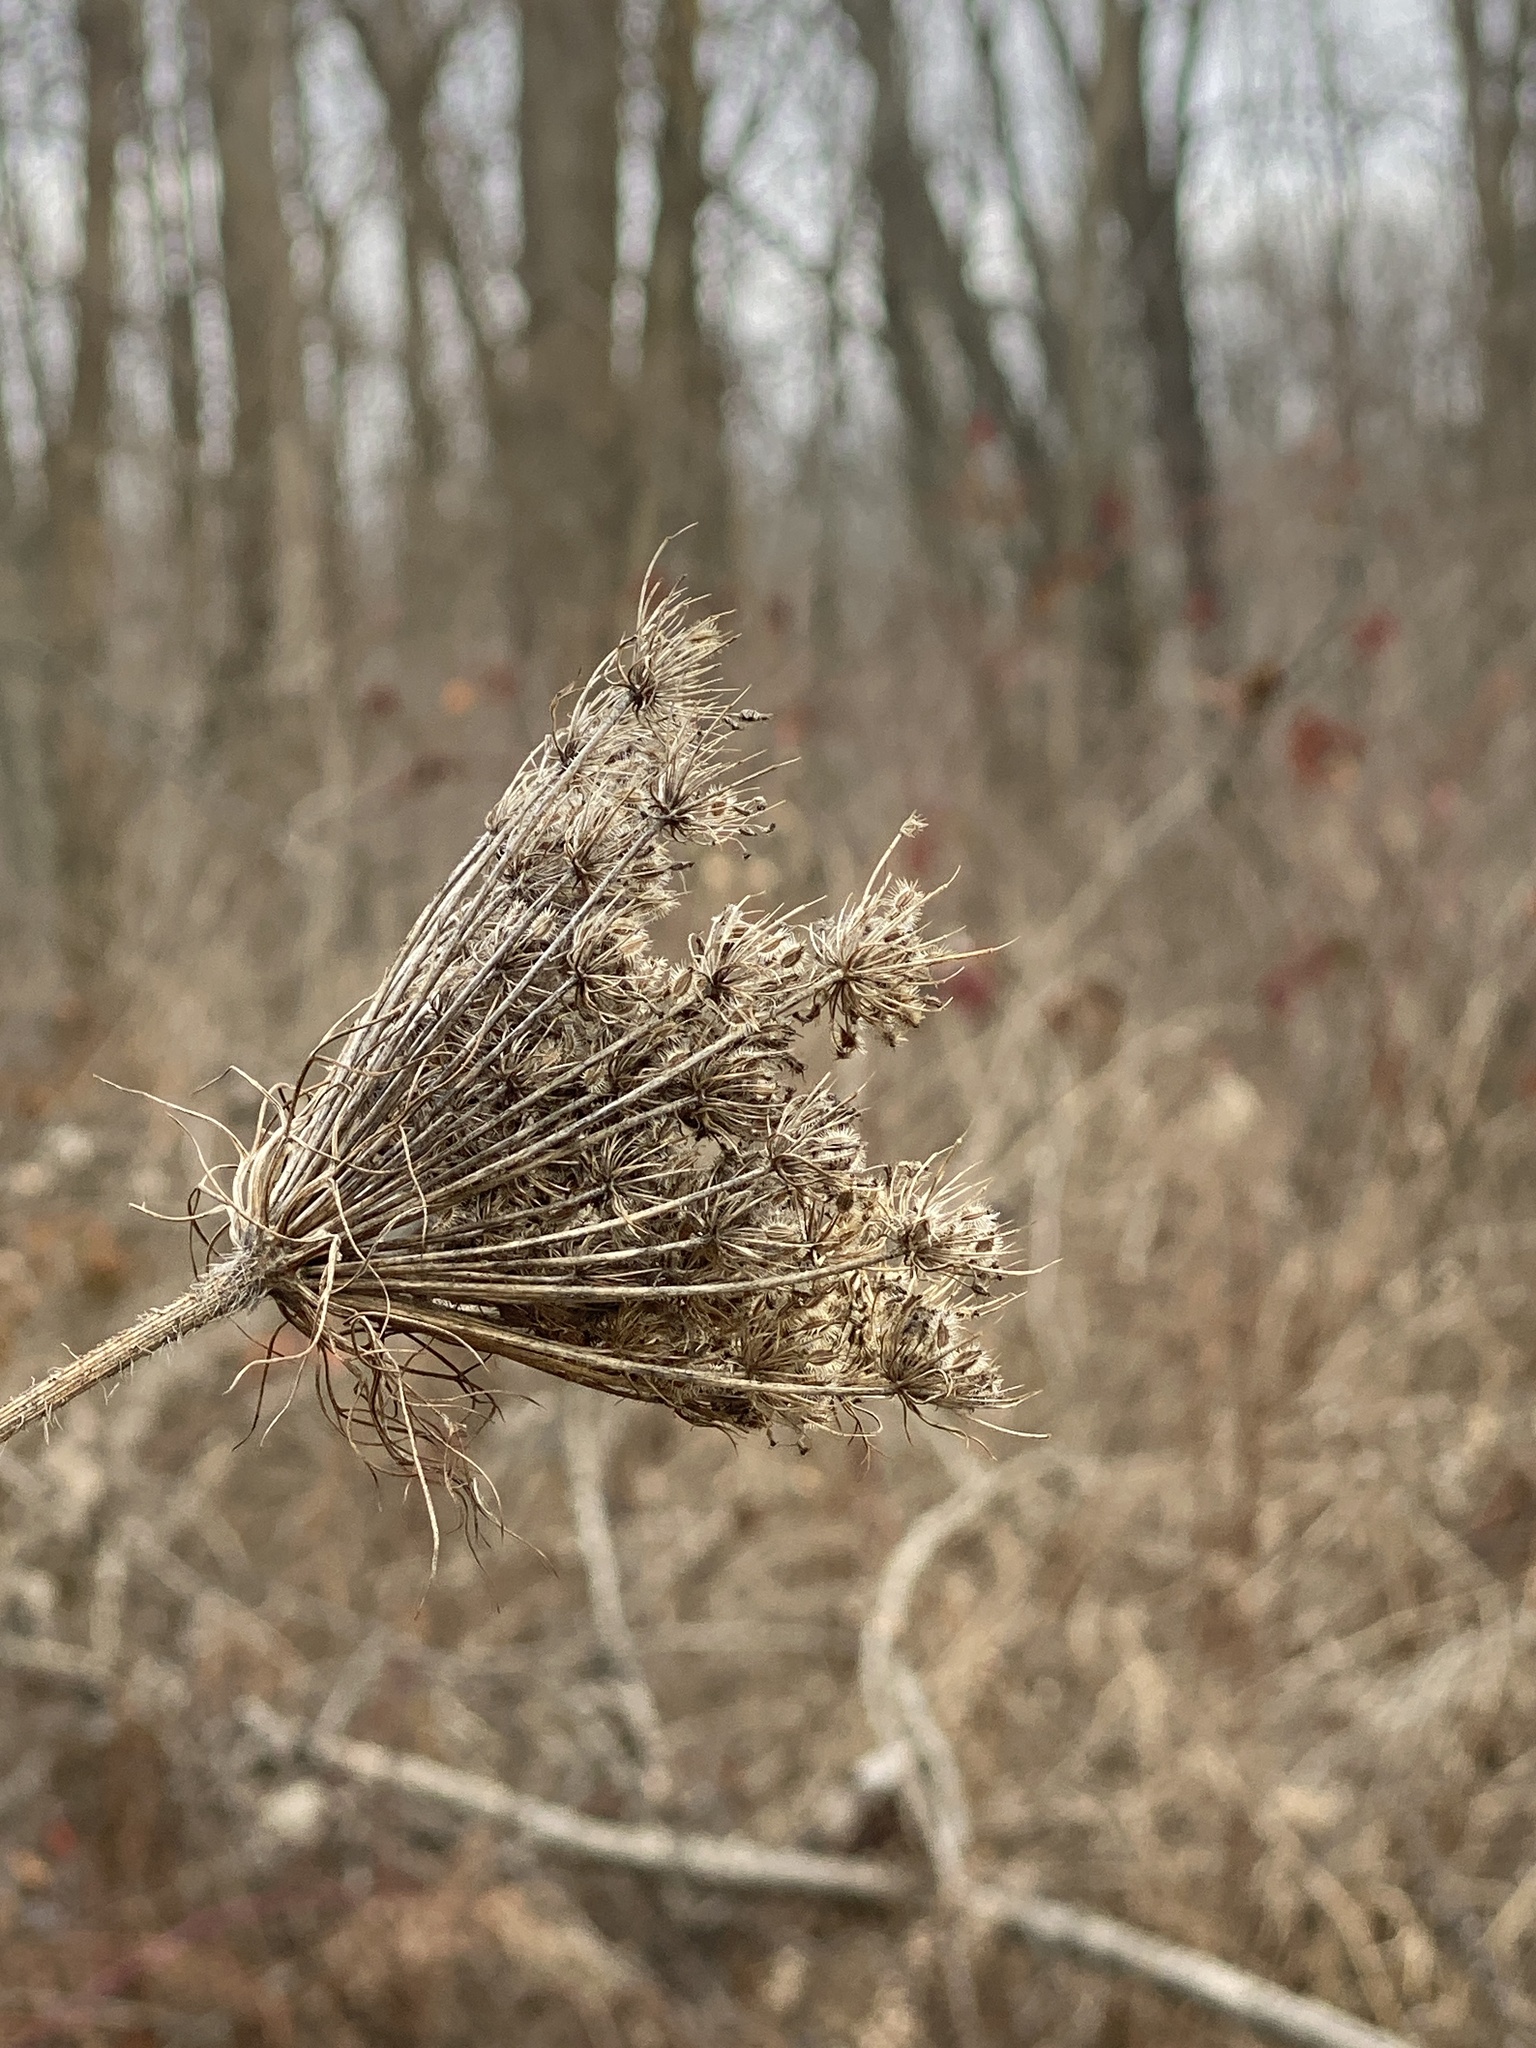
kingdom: Plantae
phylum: Tracheophyta
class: Magnoliopsida
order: Apiales
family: Apiaceae
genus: Daucus
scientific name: Daucus carota
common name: Wild carrot
